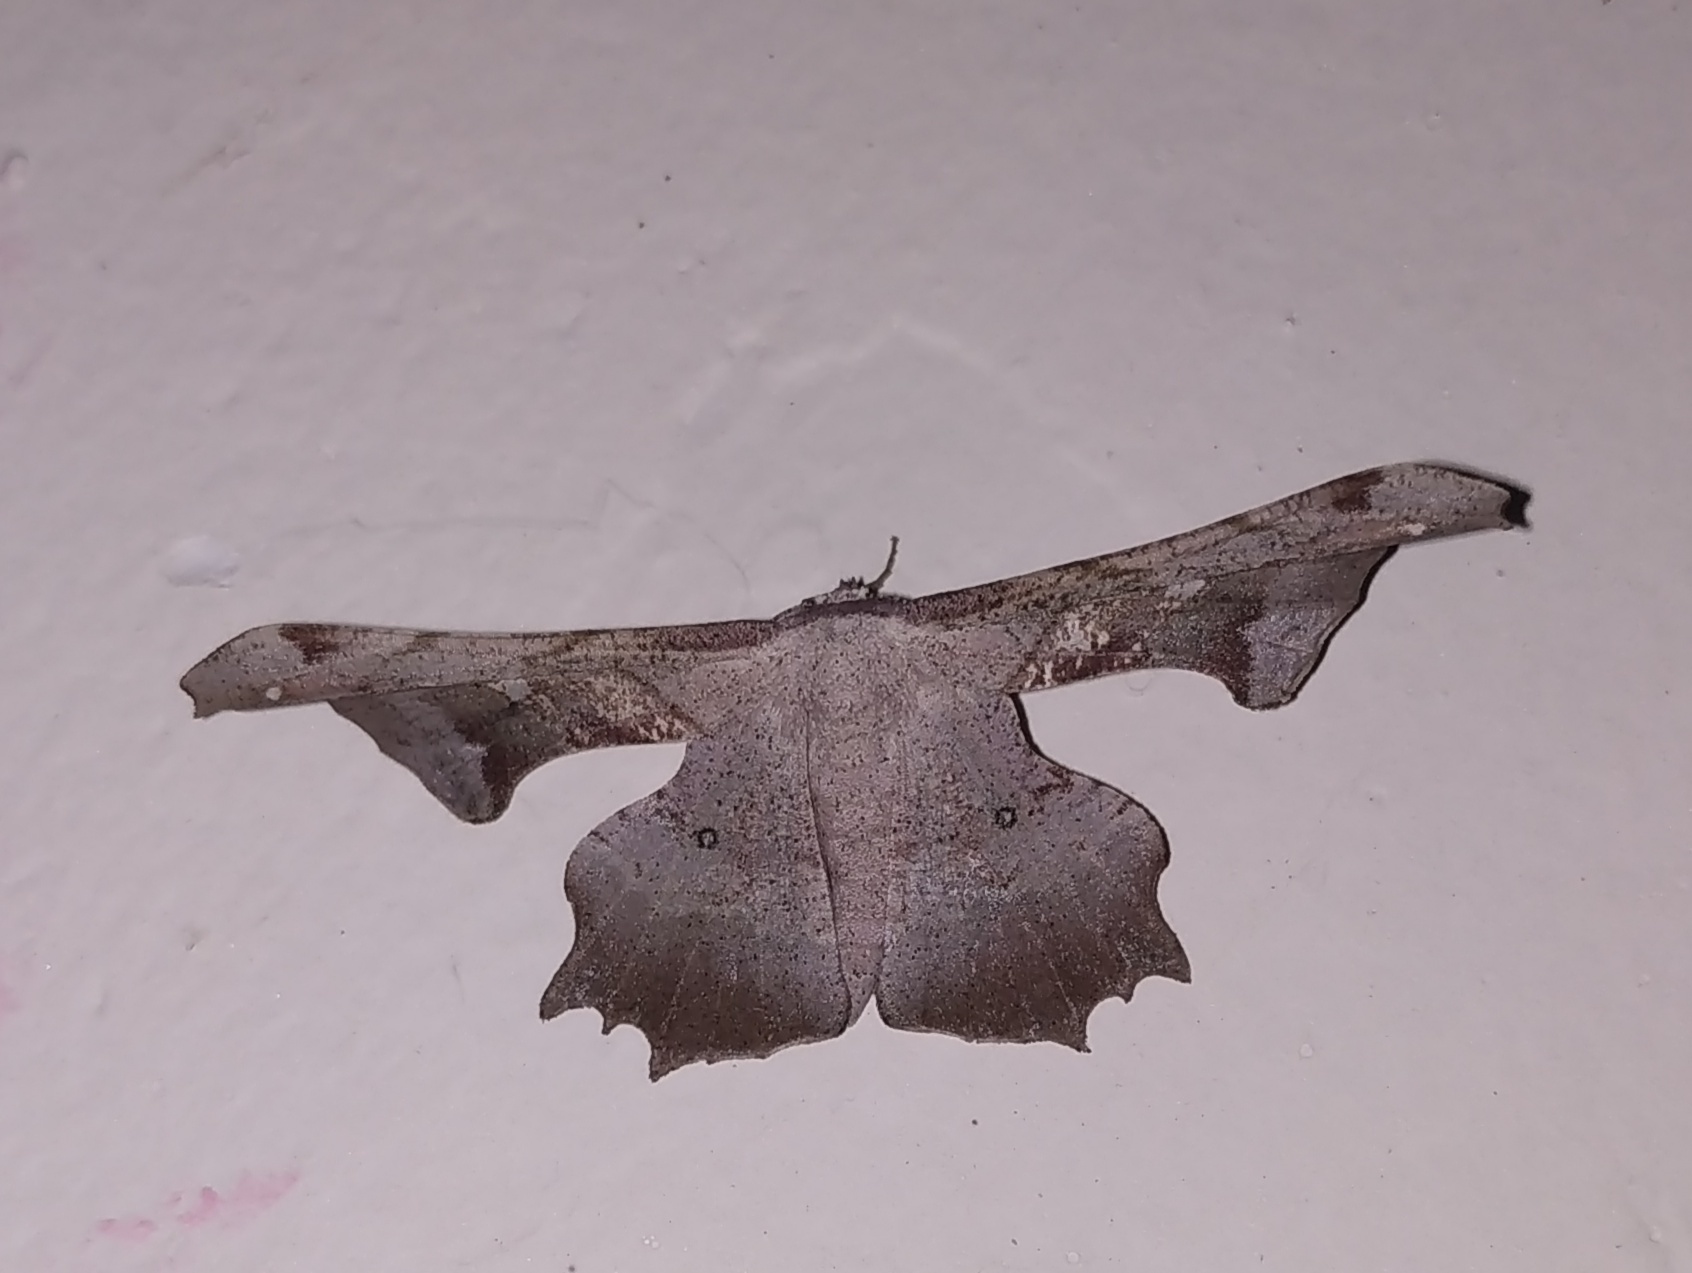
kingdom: Animalia
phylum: Arthropoda
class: Insecta
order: Lepidoptera
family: Geometridae
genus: Gonodontis
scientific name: Gonodontis clelia
